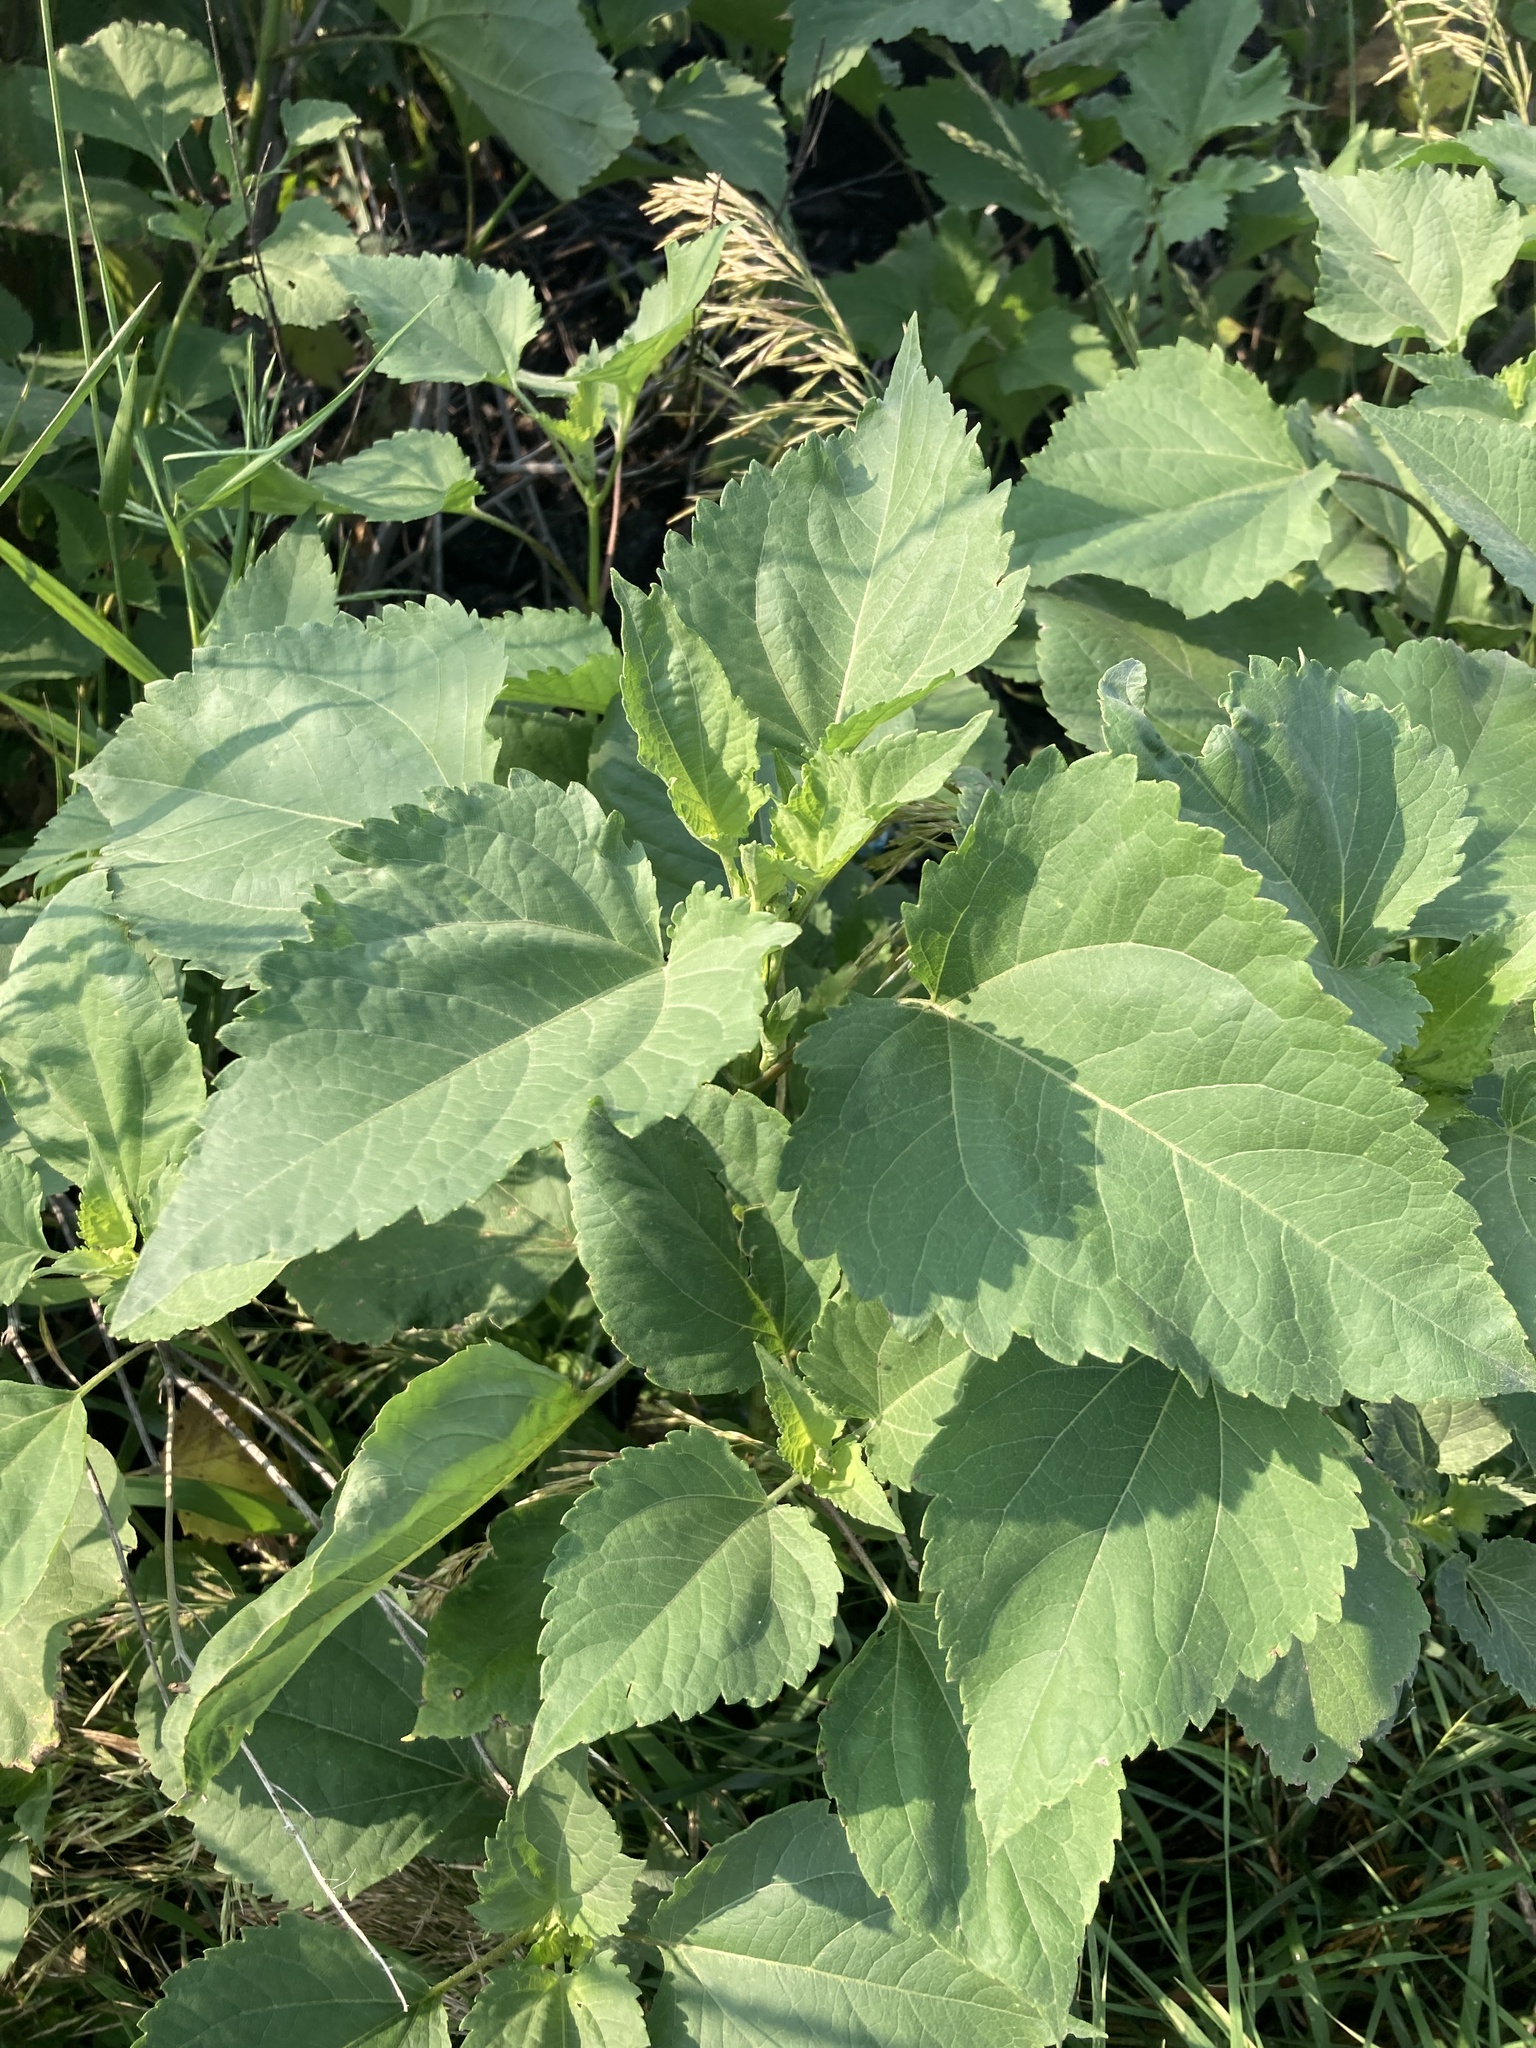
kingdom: Plantae
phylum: Tracheophyta
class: Magnoliopsida
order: Asterales
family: Asteraceae
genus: Cyclachaena
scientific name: Cyclachaena xanthiifolia
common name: Giant sumpweed
